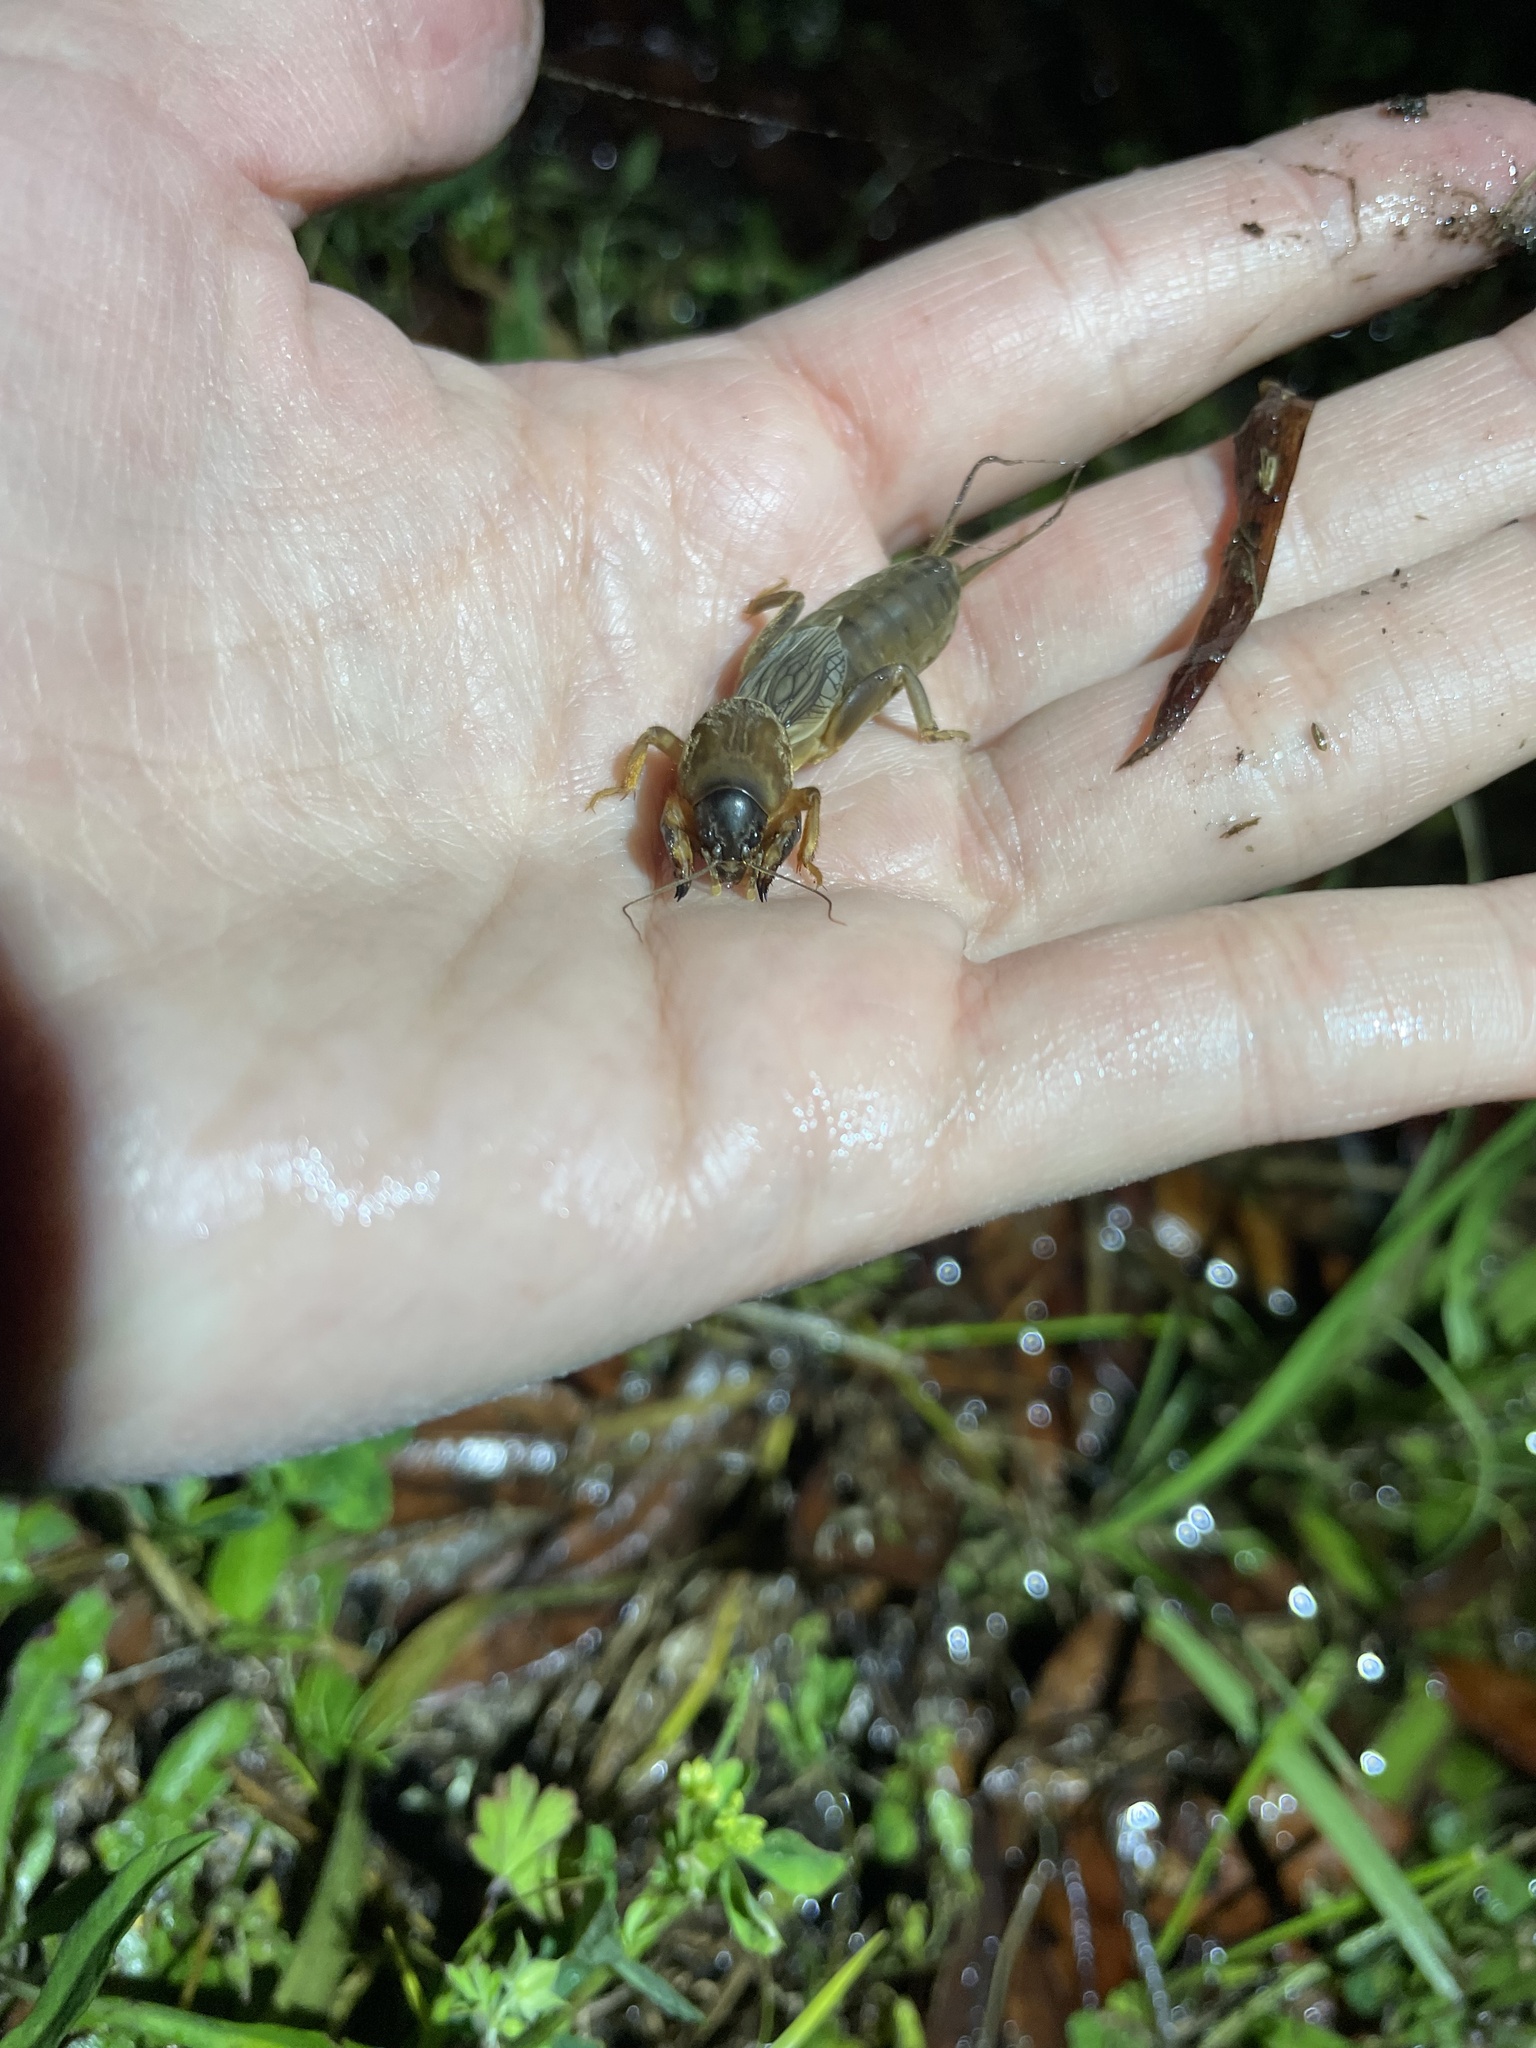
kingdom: Animalia
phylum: Arthropoda
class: Insecta
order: Orthoptera
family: Gryllotalpidae
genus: Neocurtilla
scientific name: Neocurtilla hexadactyla
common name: Northern mole cricket
